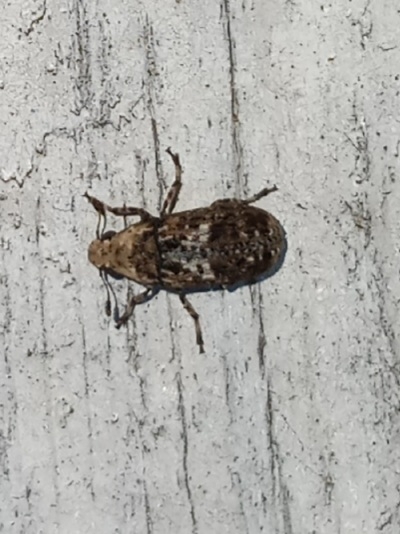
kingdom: Animalia
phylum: Arthropoda
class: Insecta
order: Coleoptera
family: Anthribidae
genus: Euparius
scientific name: Euparius paganus
